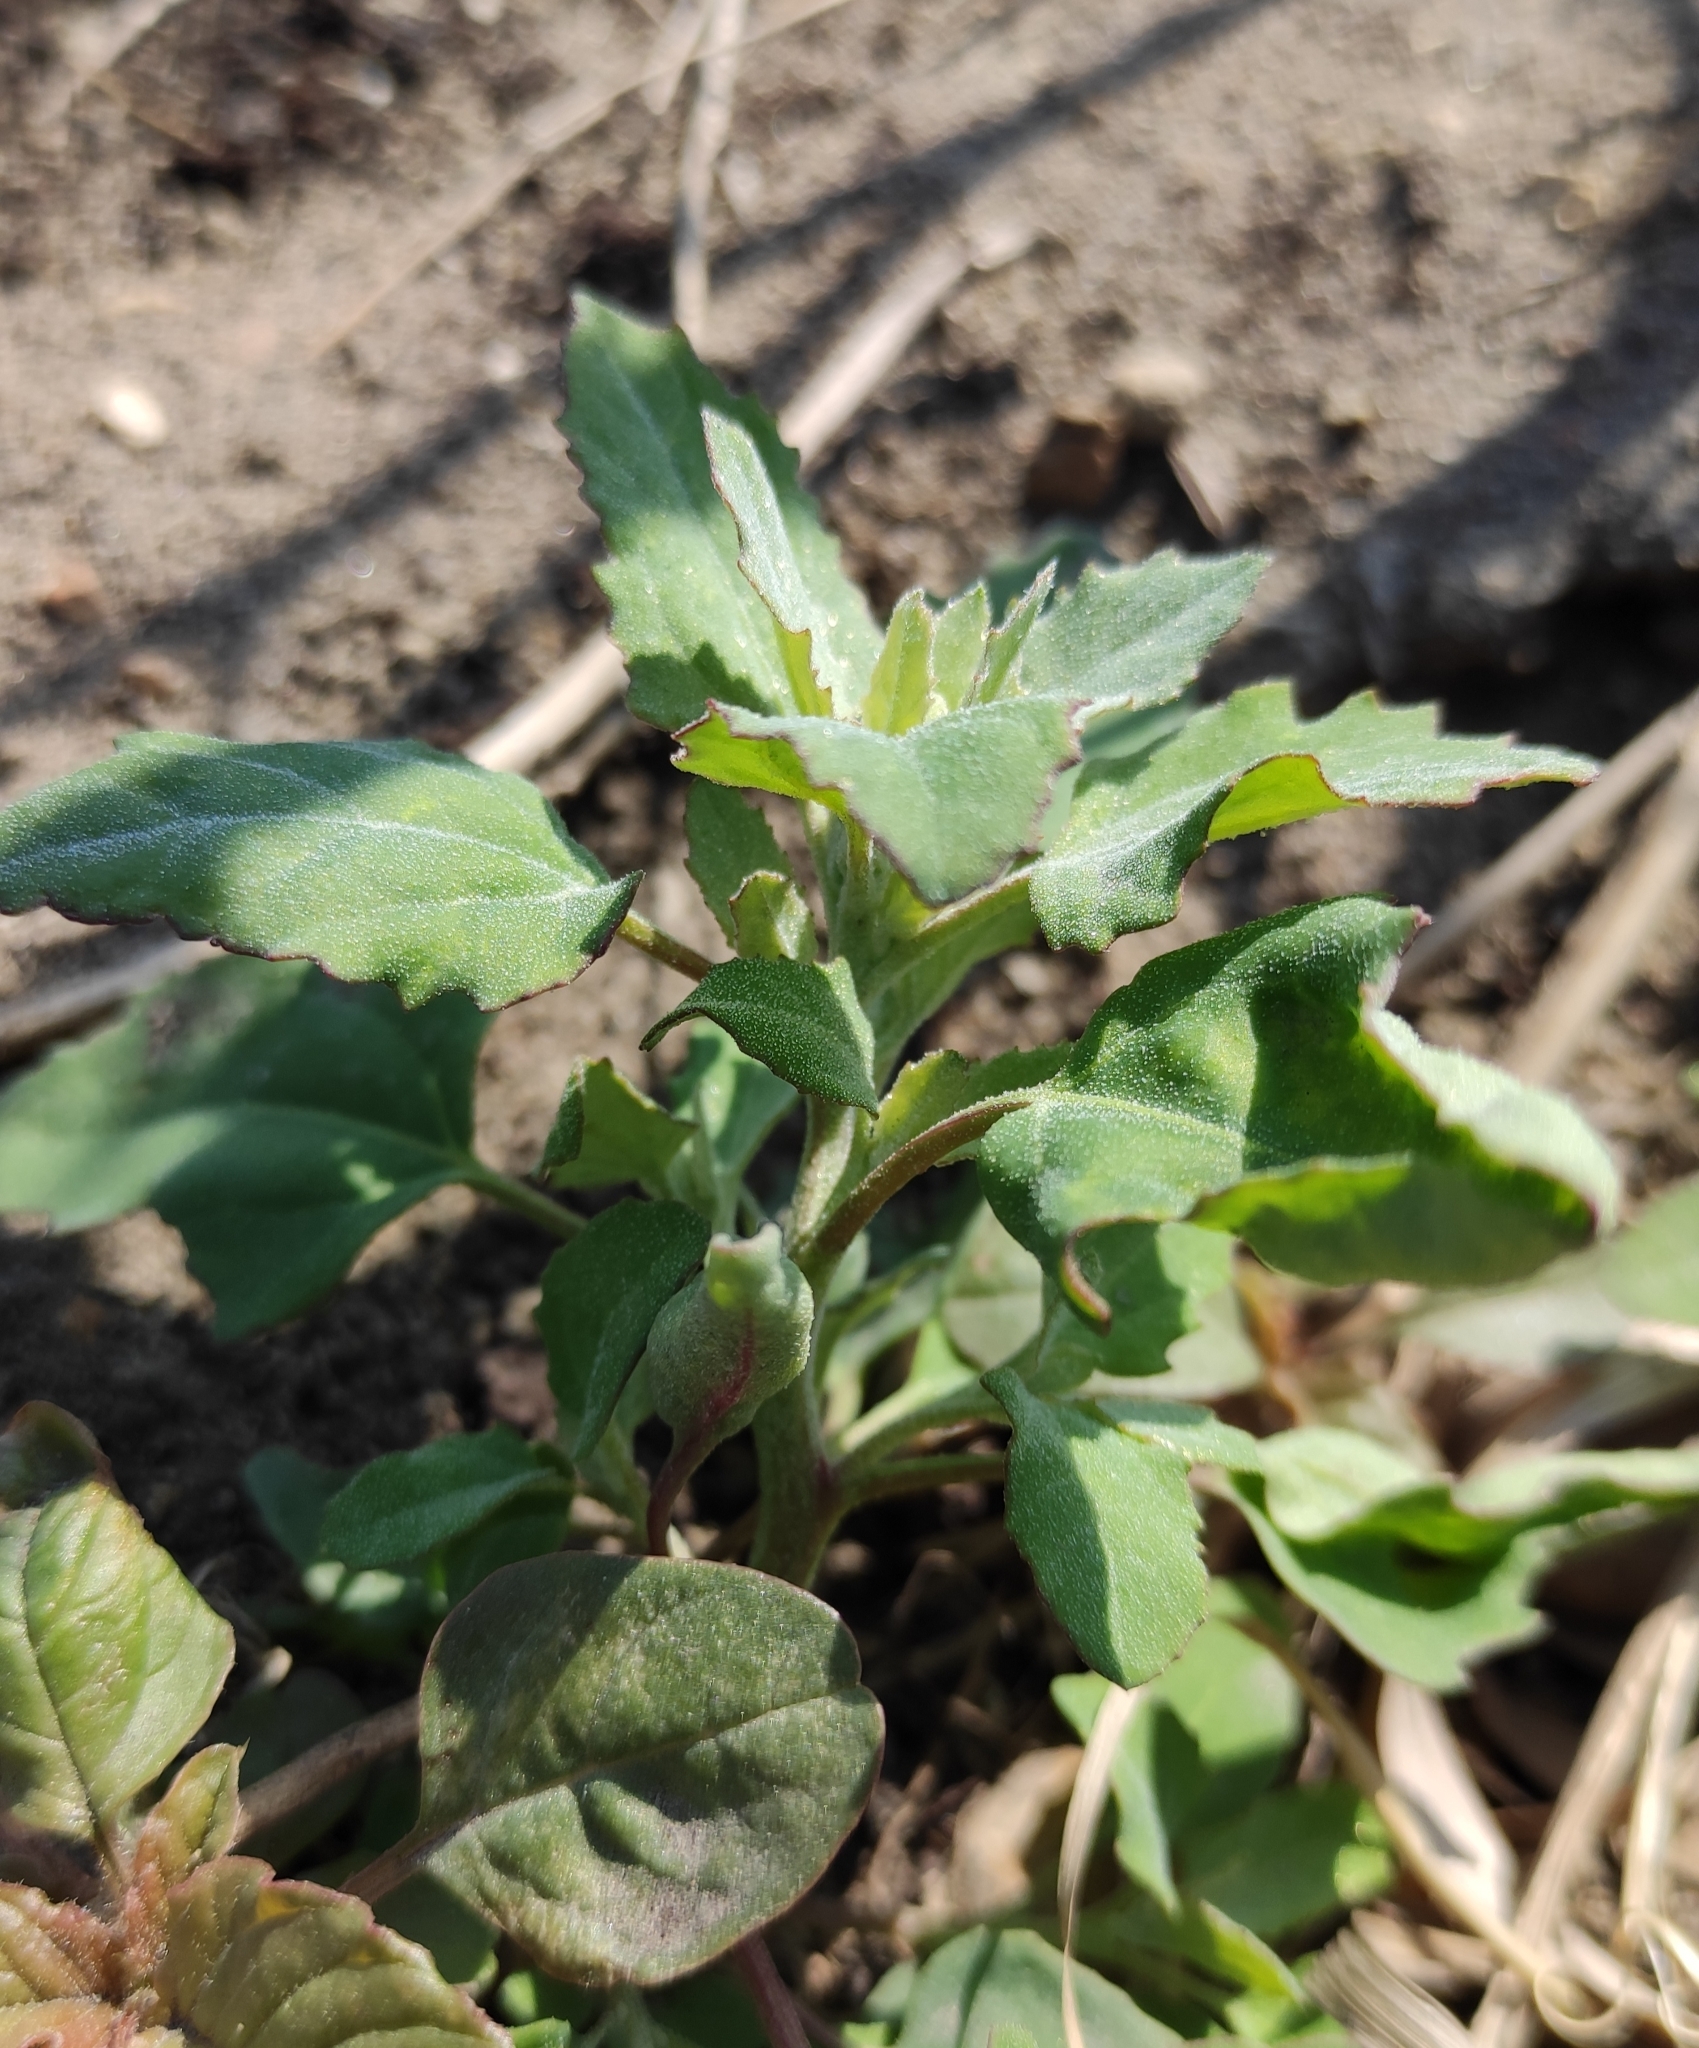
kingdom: Plantae
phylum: Tracheophyta
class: Magnoliopsida
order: Caryophyllales
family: Amaranthaceae
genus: Chenopodium
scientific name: Chenopodium album
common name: Fat-hen
